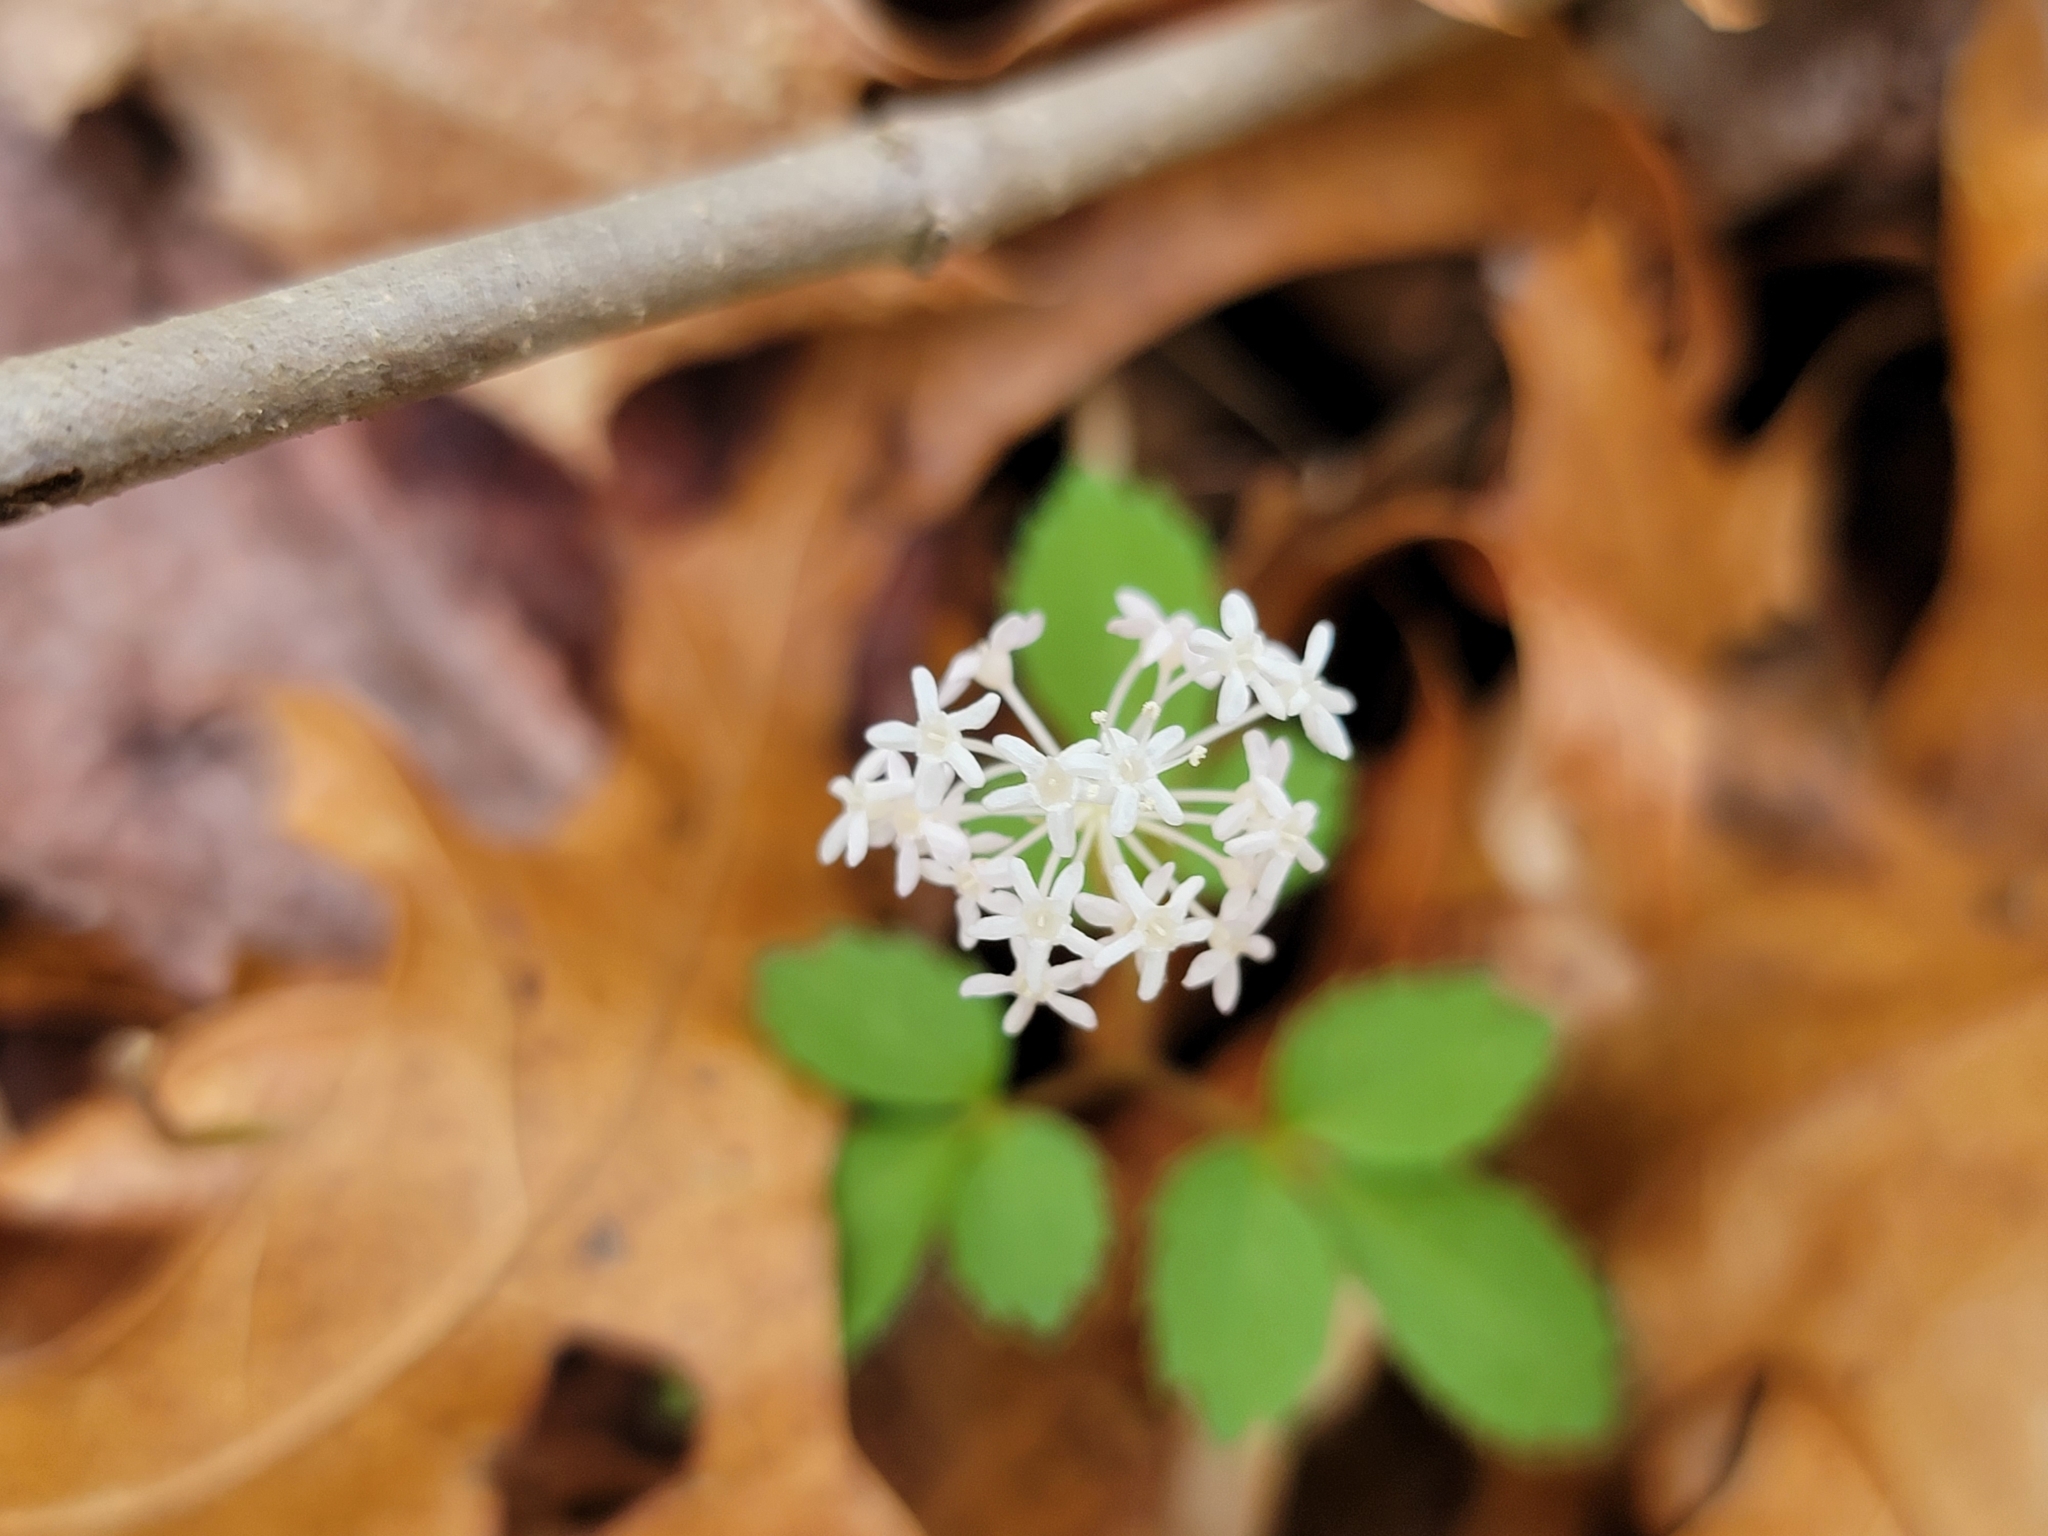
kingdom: Plantae
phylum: Tracheophyta
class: Magnoliopsida
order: Apiales
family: Araliaceae
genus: Panax
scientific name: Panax trifolius
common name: Dwarf ginseng
